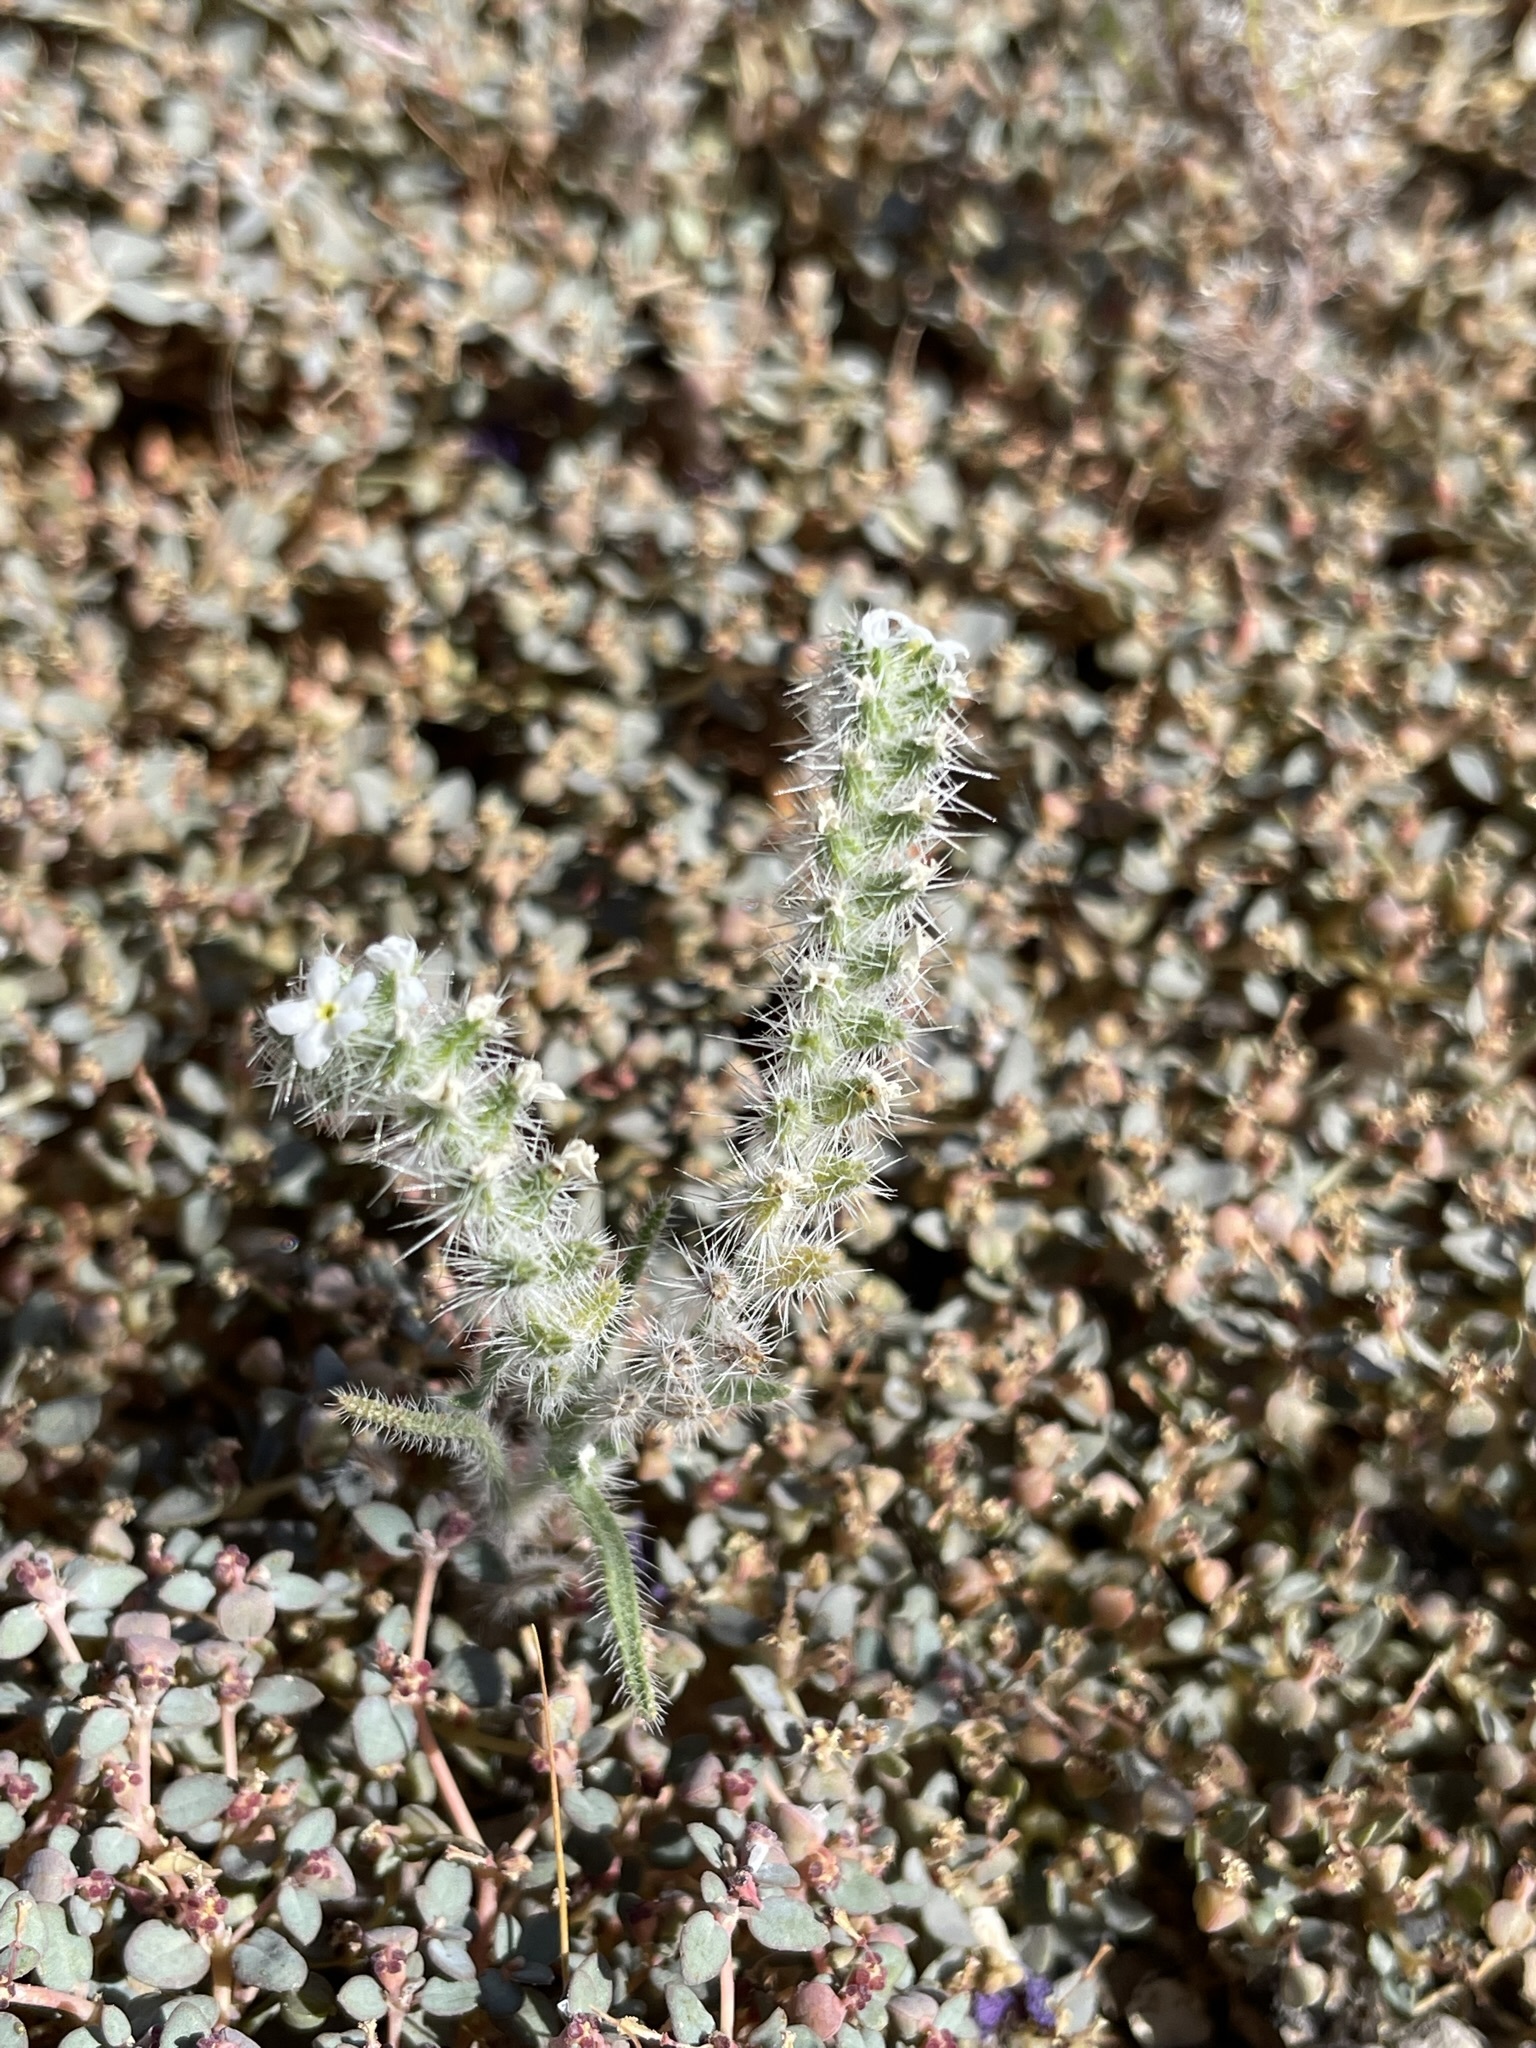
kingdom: Plantae
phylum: Tracheophyta
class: Magnoliopsida
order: Boraginales
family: Boraginaceae
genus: Johnstonella
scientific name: Johnstonella angustifolia
